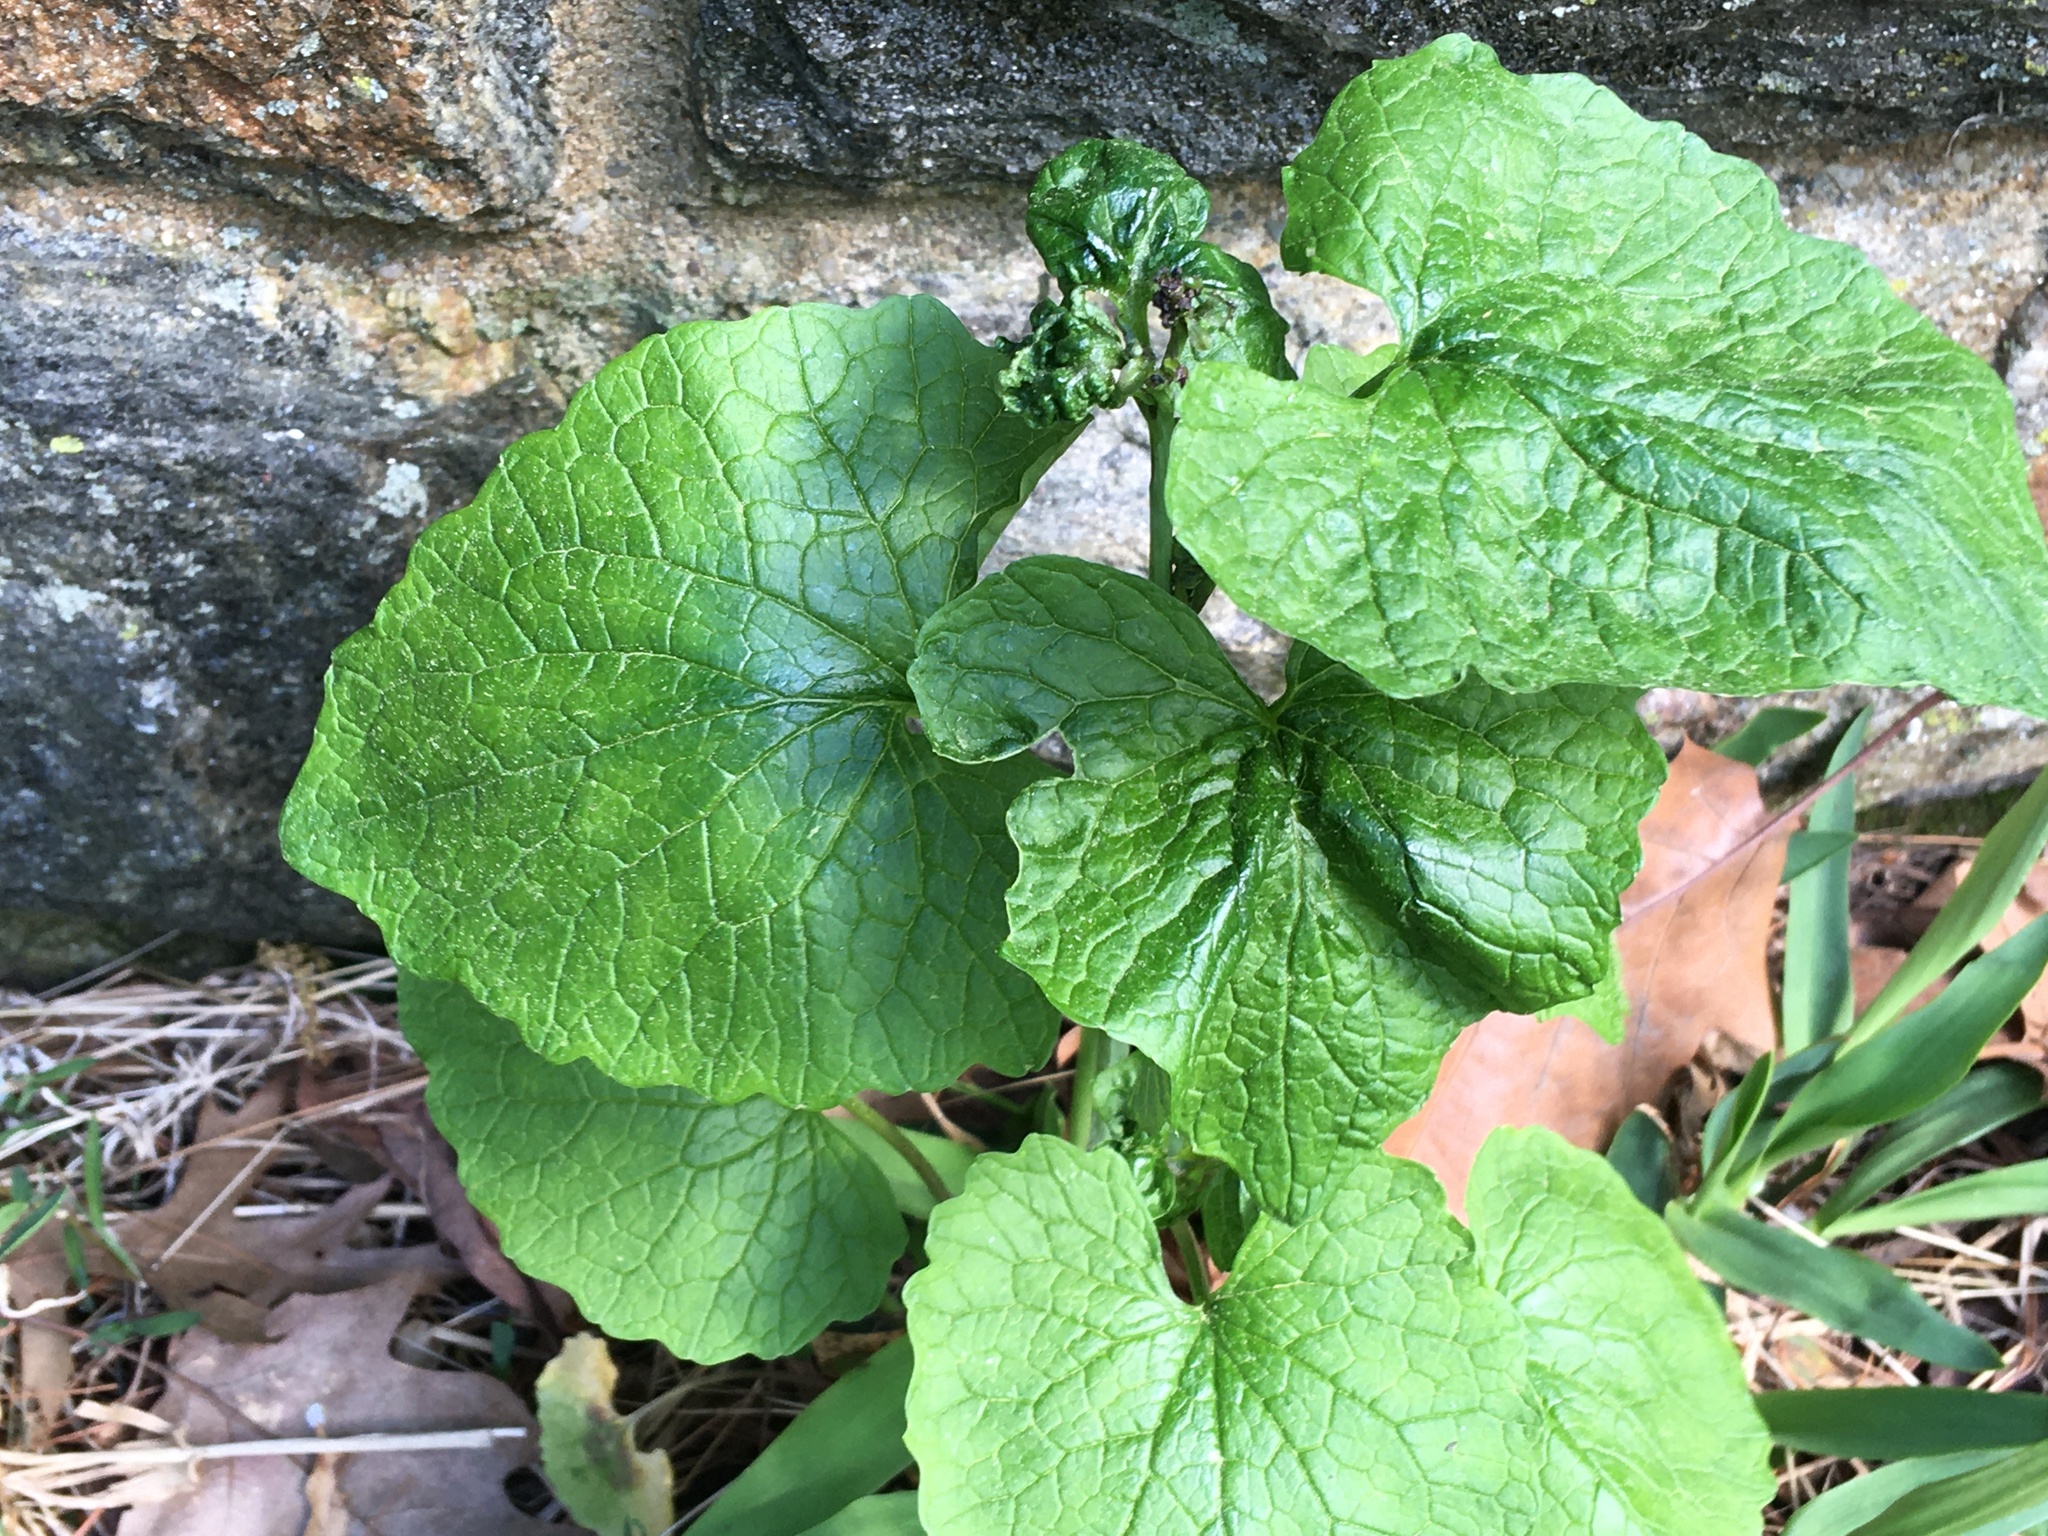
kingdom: Plantae
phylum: Tracheophyta
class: Magnoliopsida
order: Brassicales
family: Brassicaceae
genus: Alliaria
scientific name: Alliaria petiolata
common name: Garlic mustard
